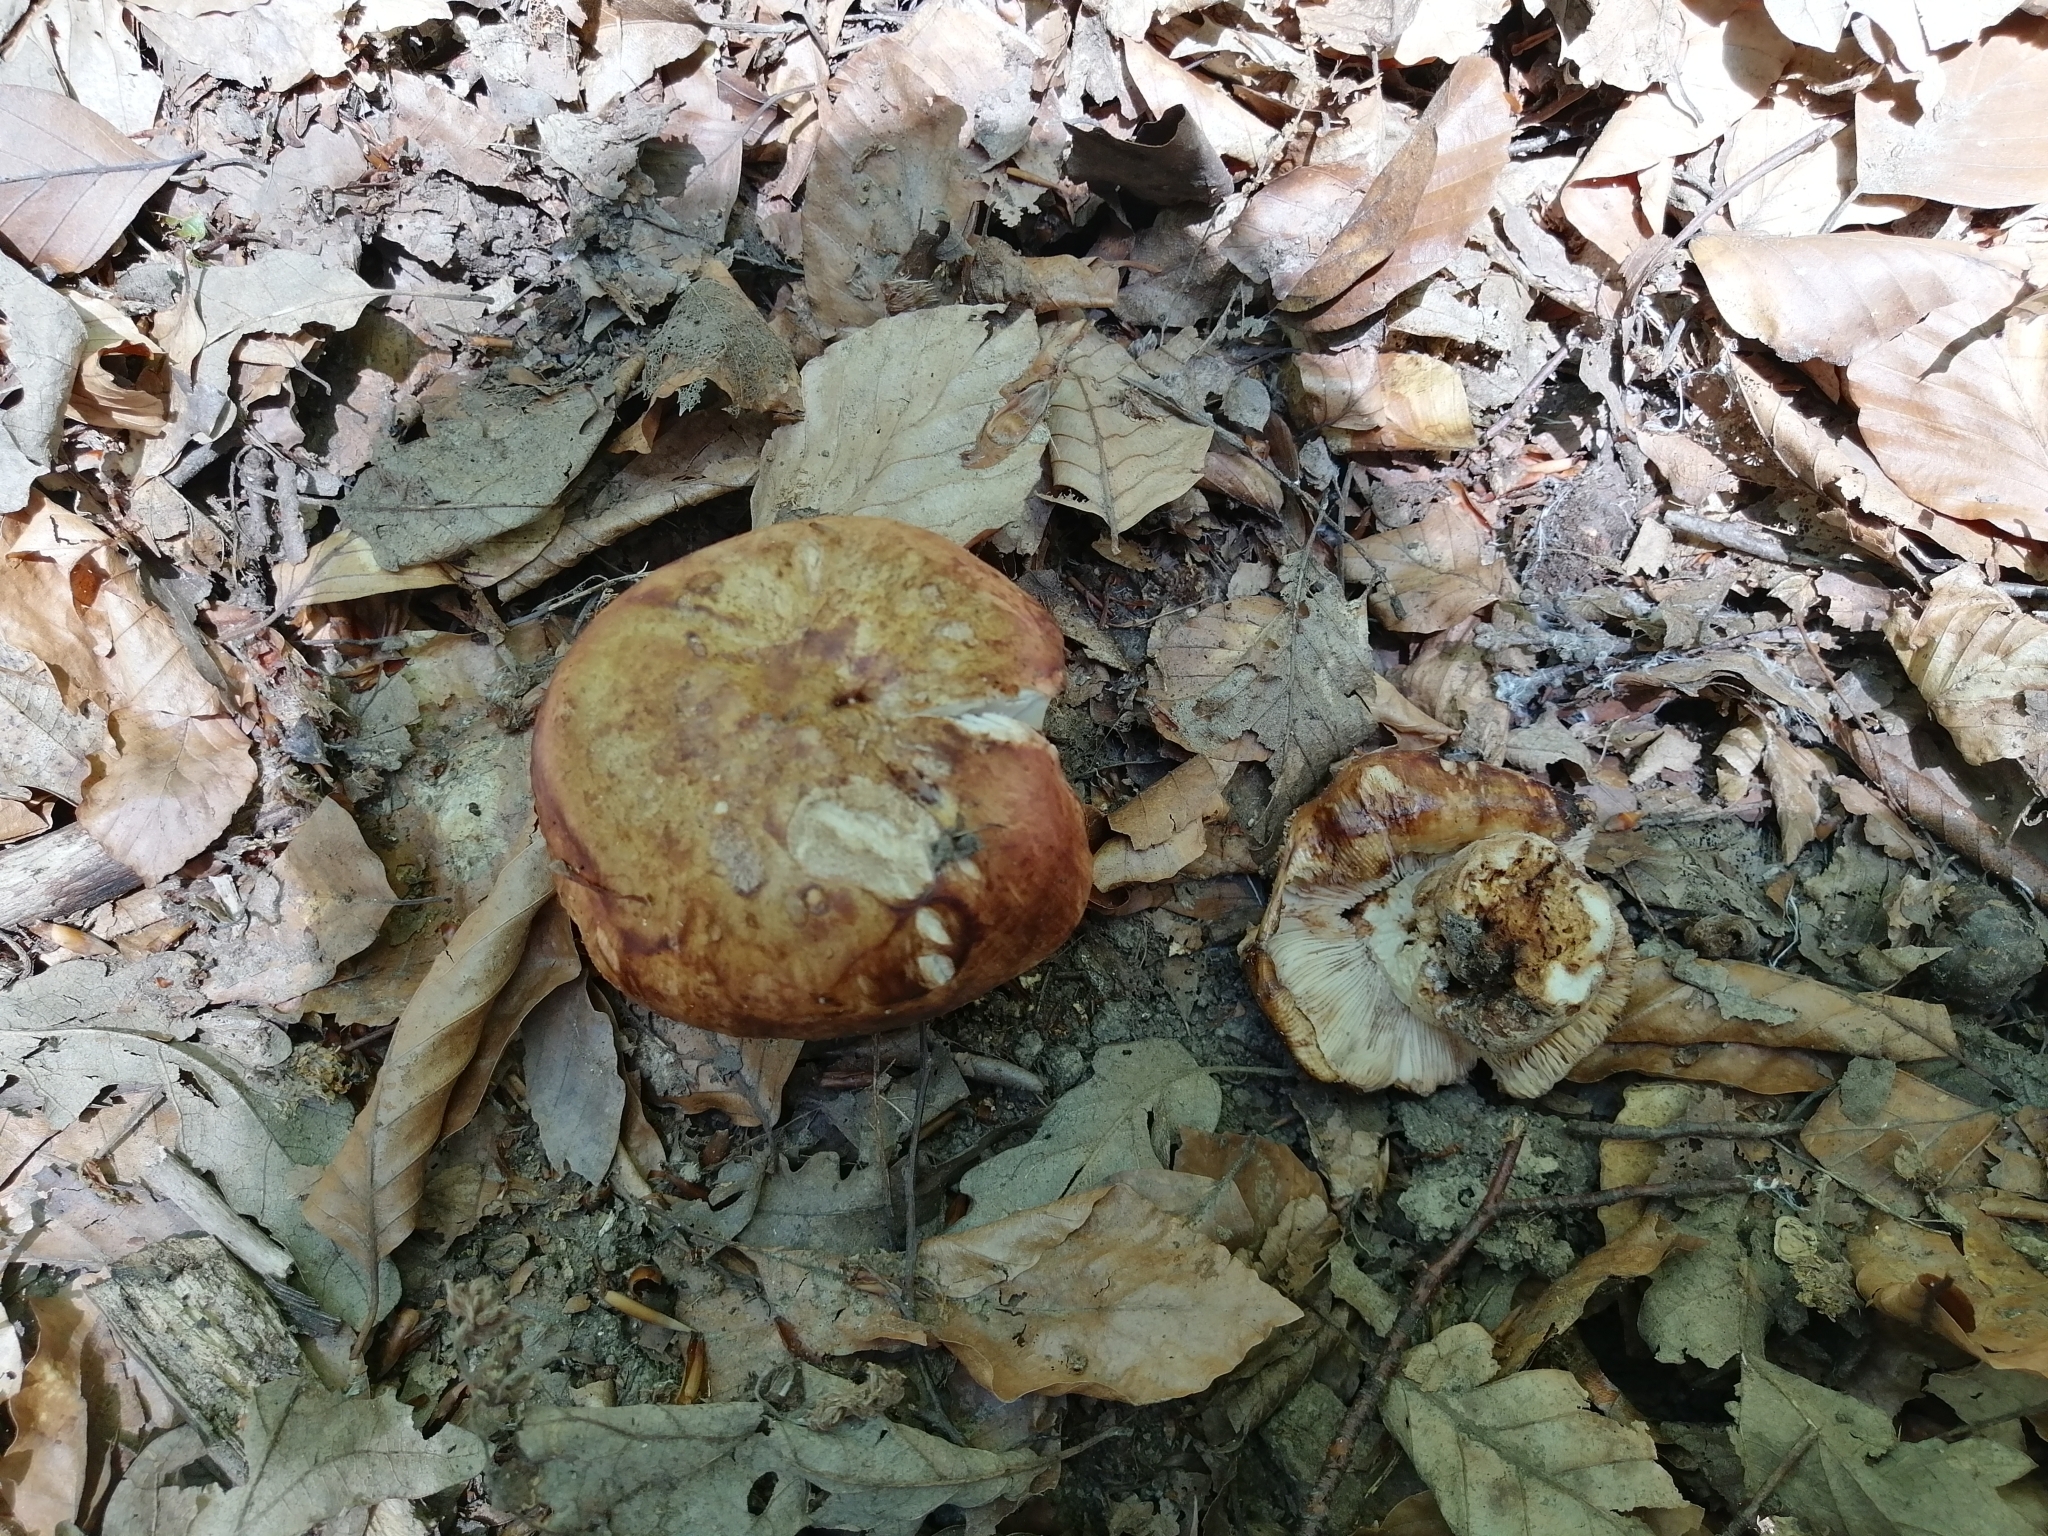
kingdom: Fungi
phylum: Basidiomycota
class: Agaricomycetes
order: Russulales
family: Russulaceae
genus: Russula
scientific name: Russula illota
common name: Freckled brittlegill
